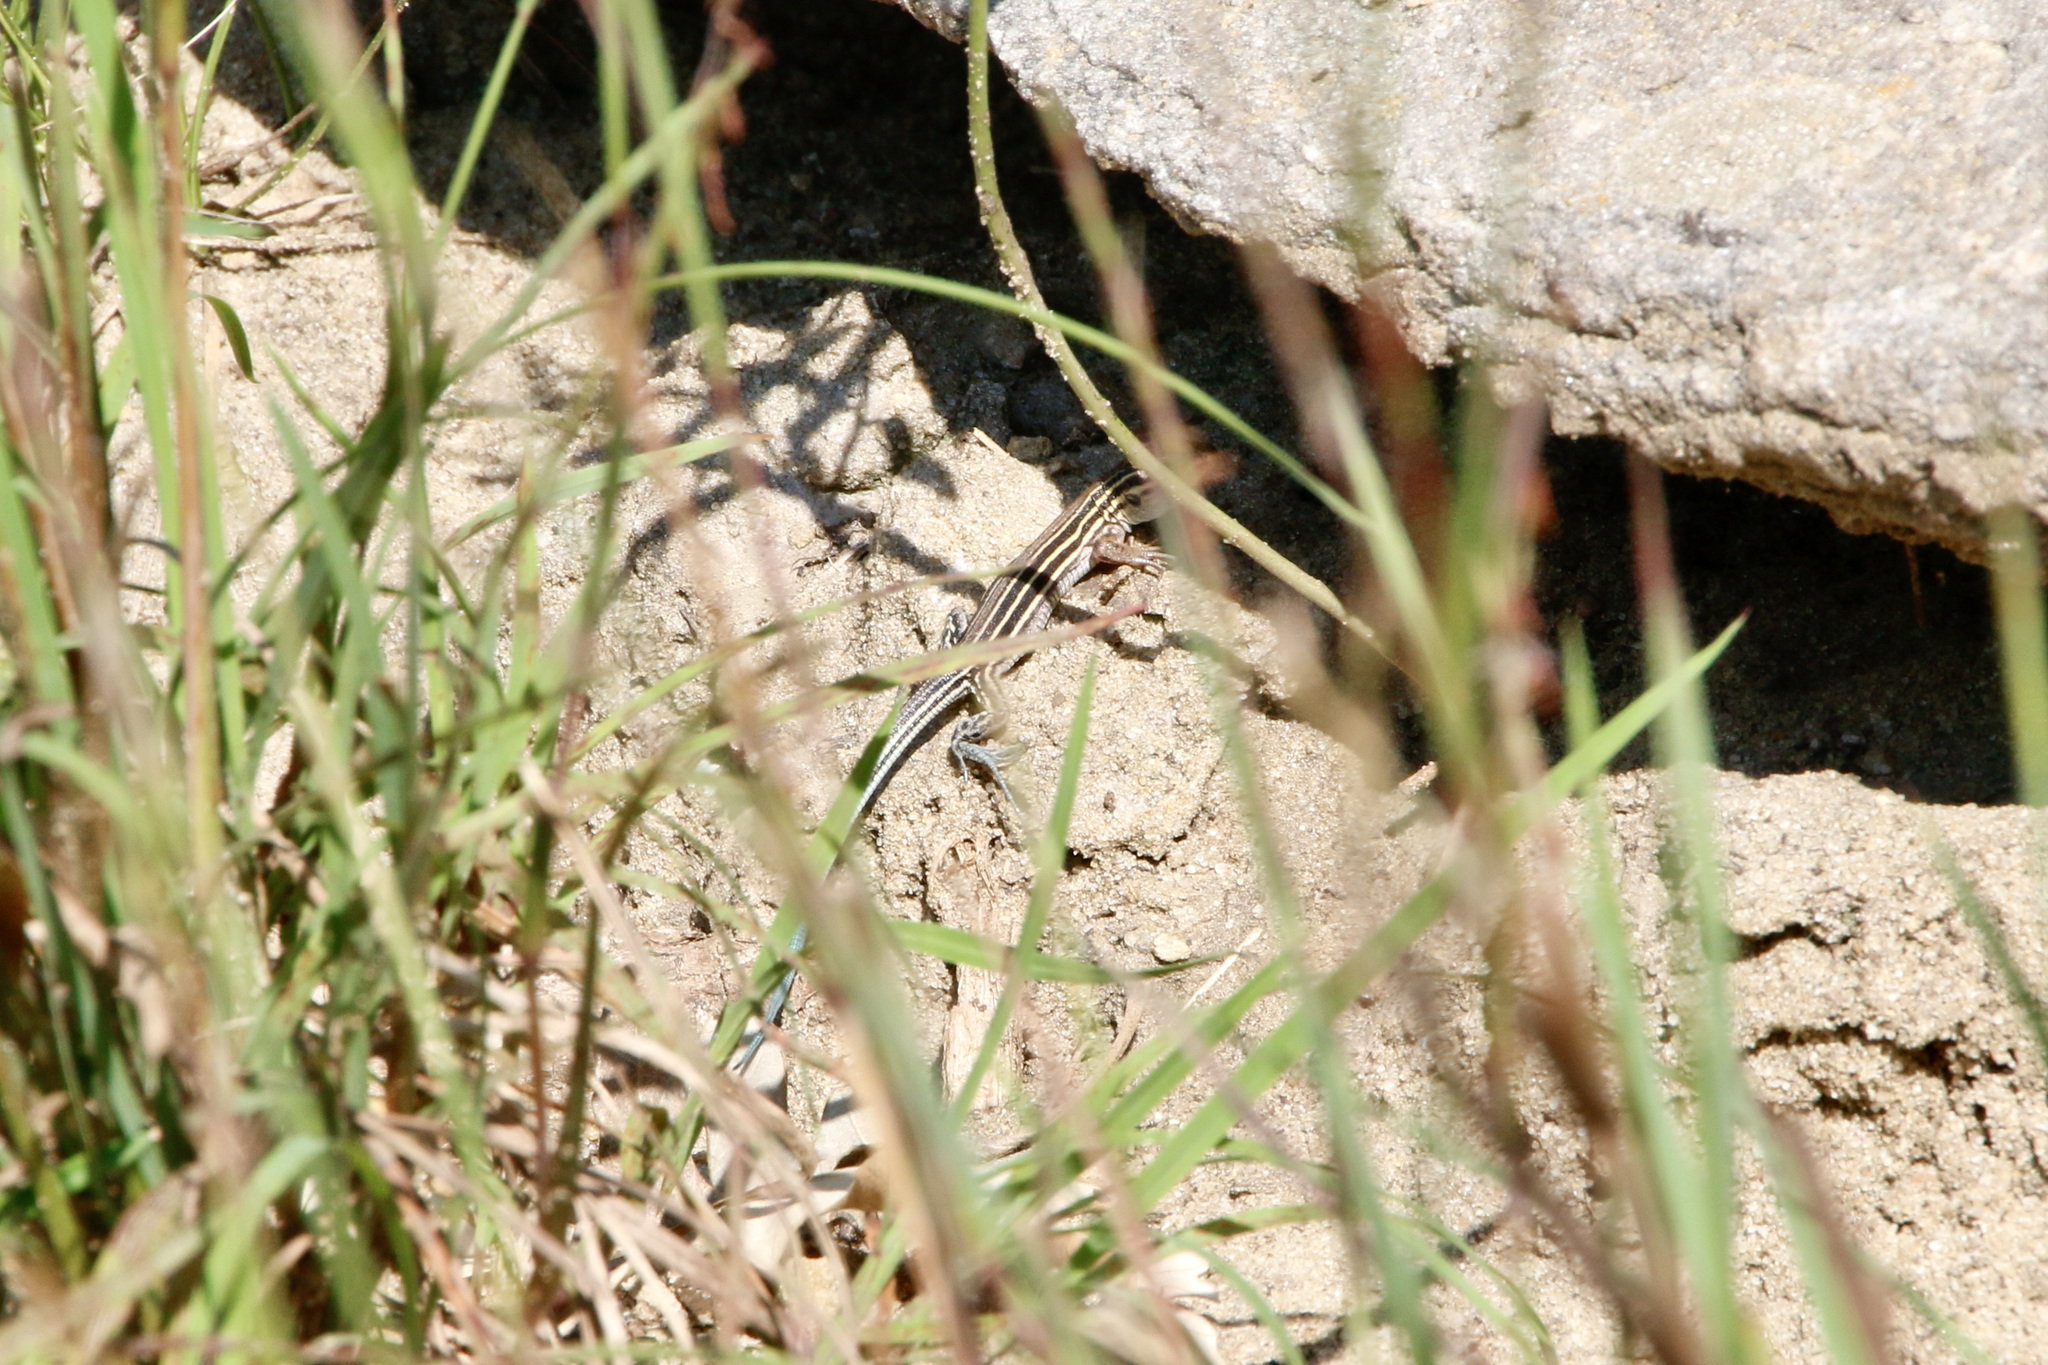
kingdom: Animalia
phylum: Chordata
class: Squamata
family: Teiidae
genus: Aspidoscelis
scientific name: Aspidoscelis sexlineatus
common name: Six-lined racerunner
